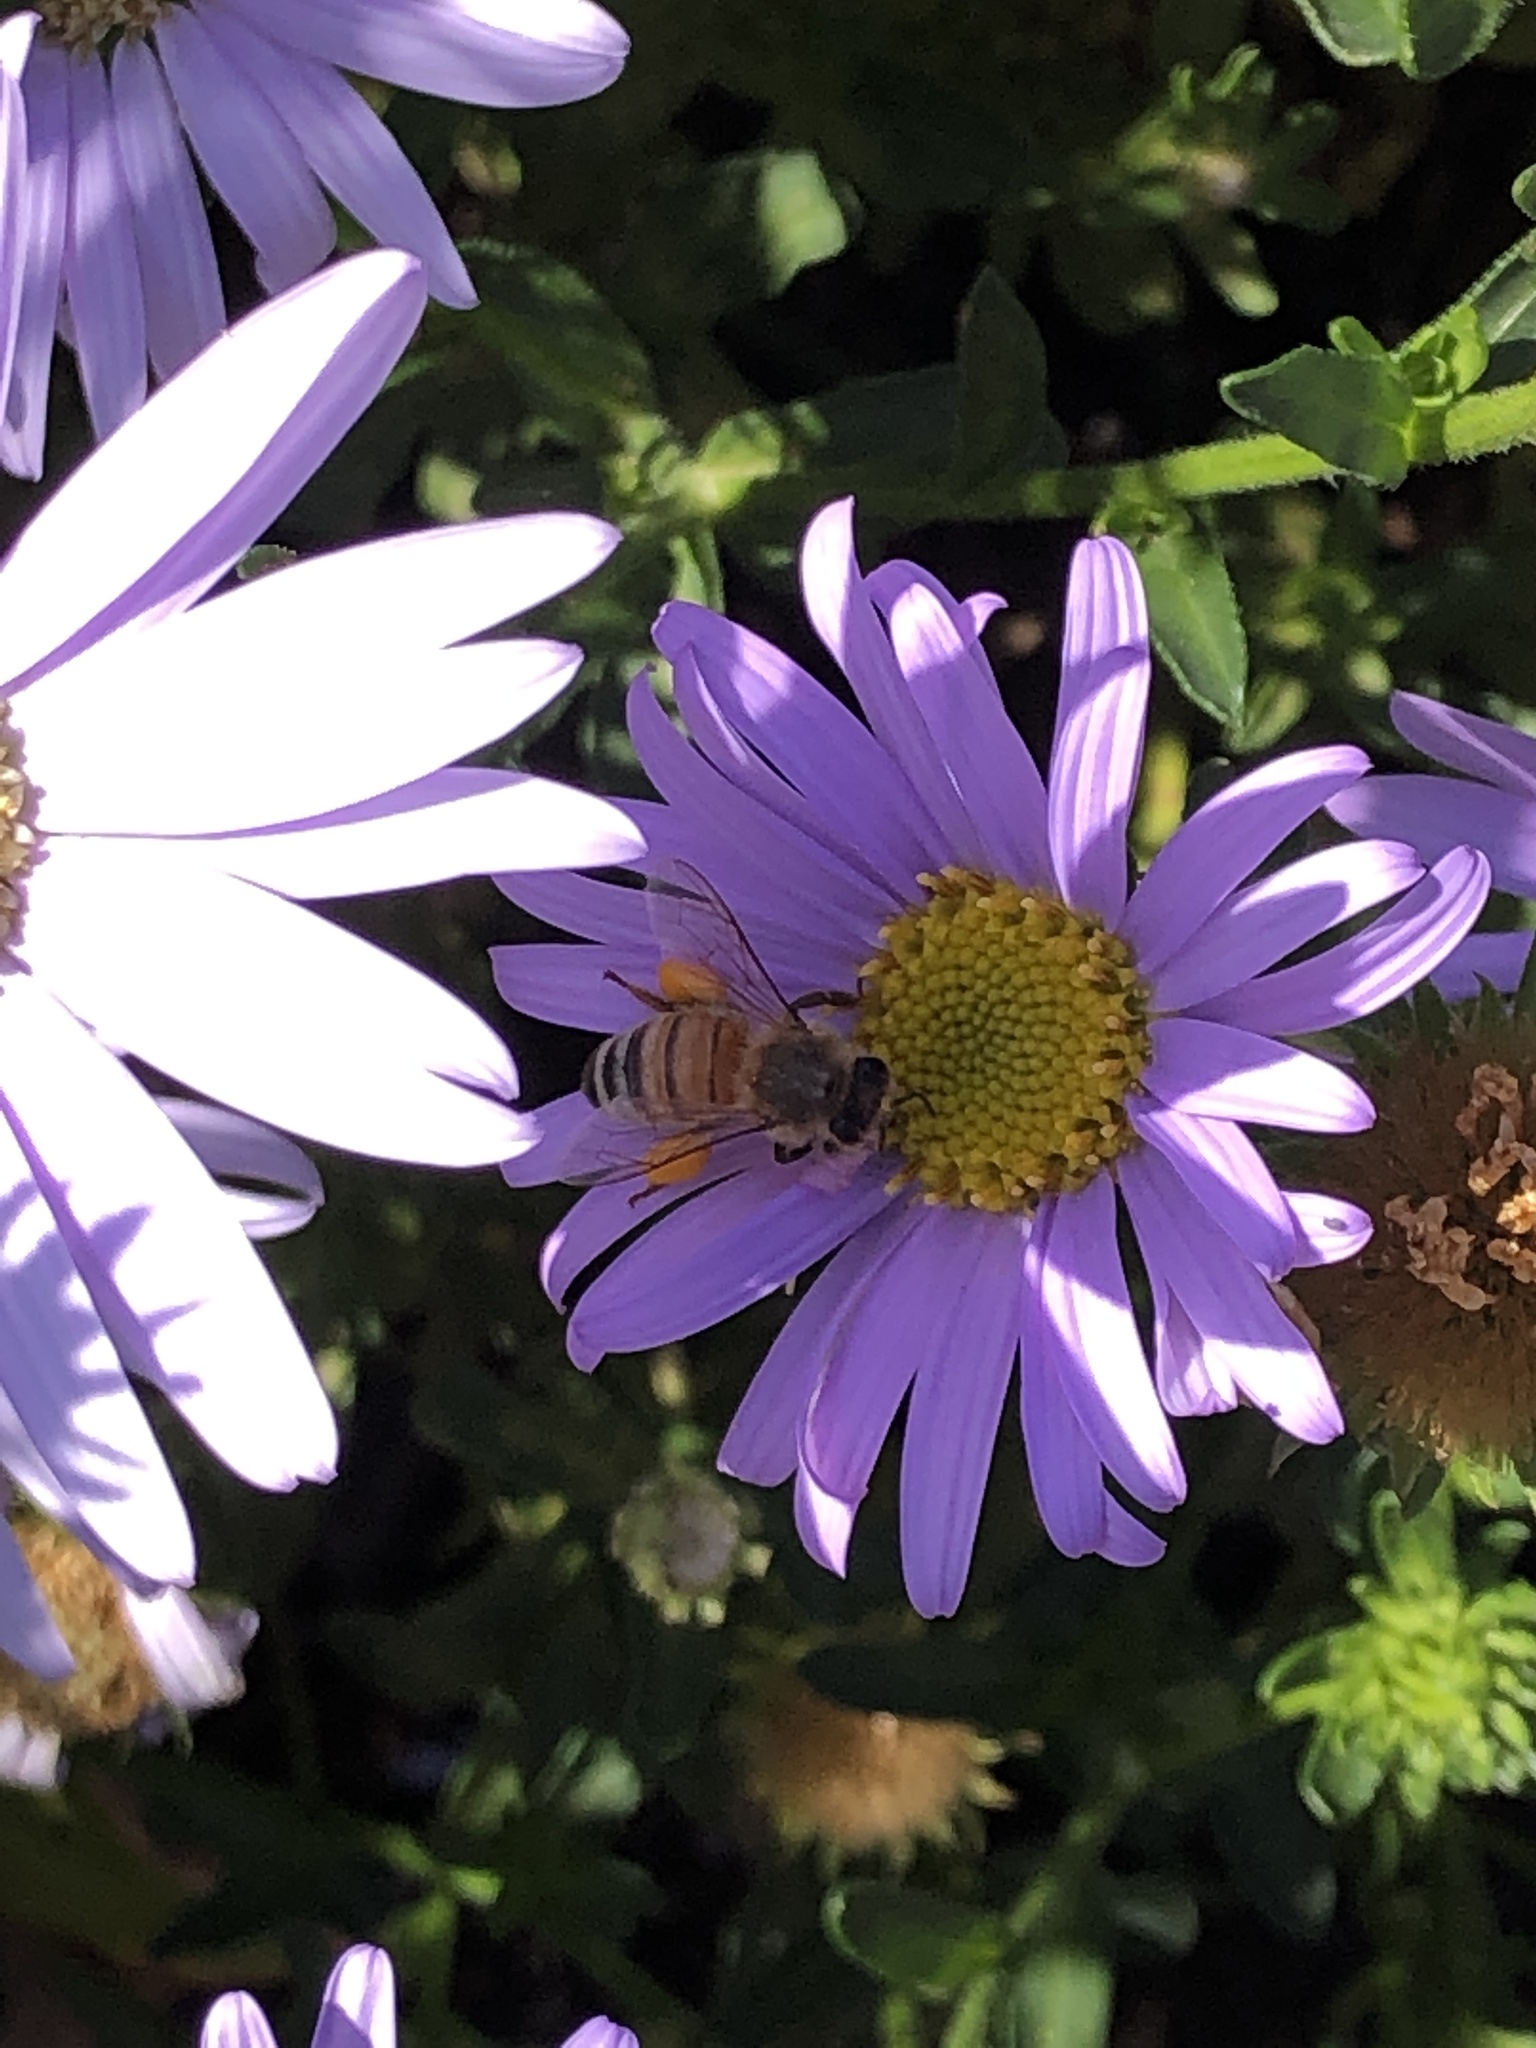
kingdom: Animalia
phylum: Arthropoda
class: Insecta
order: Hymenoptera
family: Apidae
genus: Apis
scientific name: Apis mellifera
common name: Honey bee
